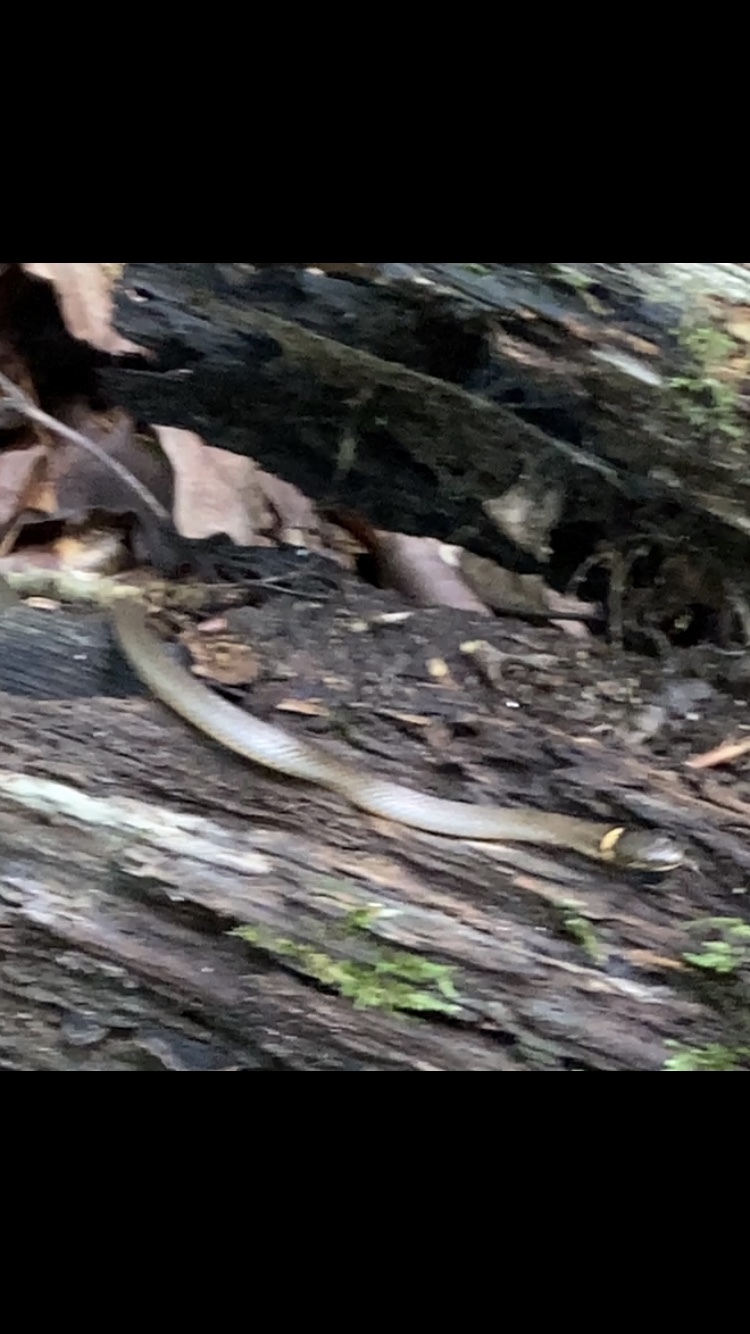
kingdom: Animalia
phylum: Chordata
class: Squamata
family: Colubridae
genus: Diadophis
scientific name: Diadophis punctatus
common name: Ringneck snake
